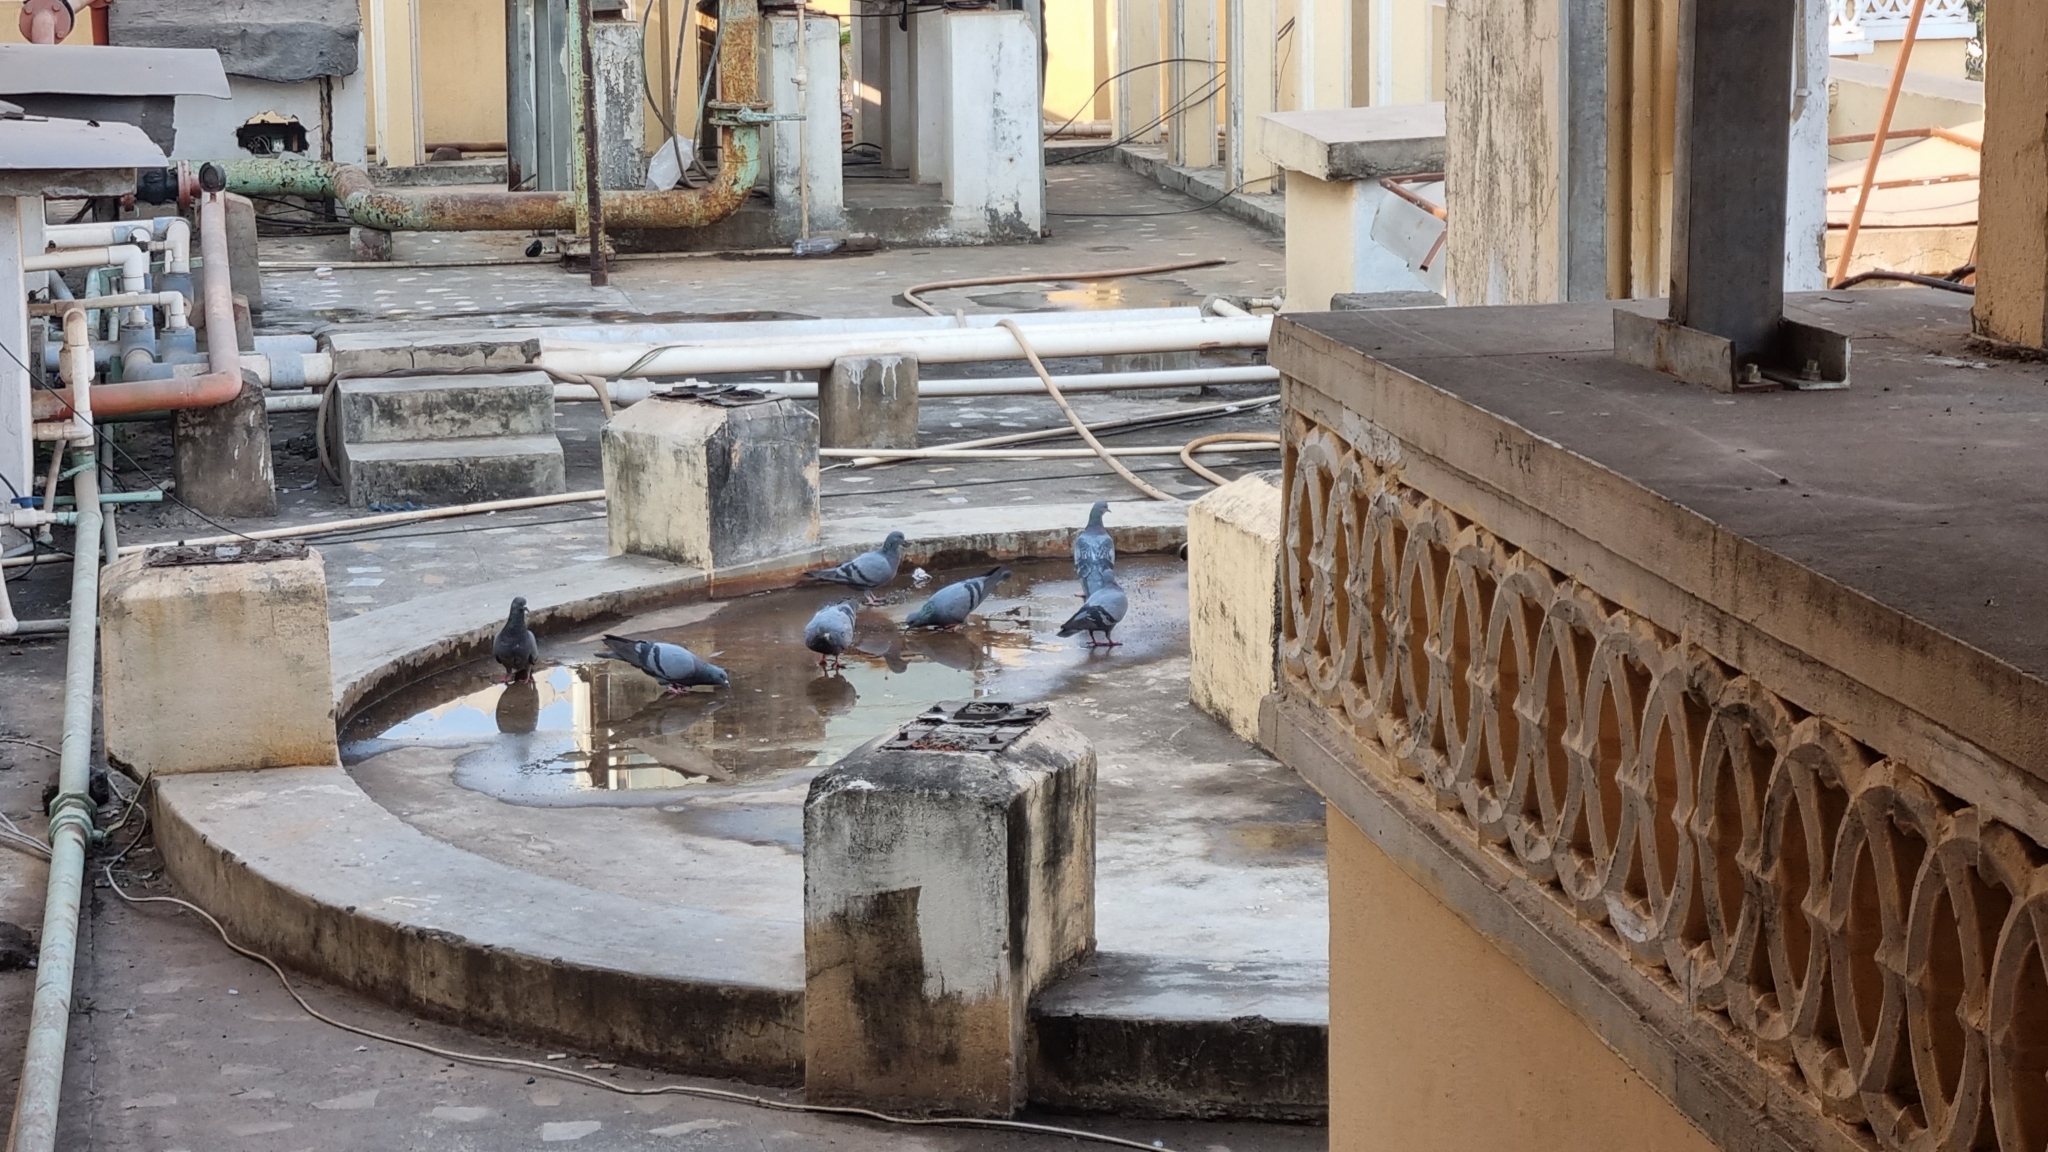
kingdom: Animalia
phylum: Chordata
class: Aves
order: Columbiformes
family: Columbidae
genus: Columba
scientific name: Columba livia
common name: Rock pigeon
